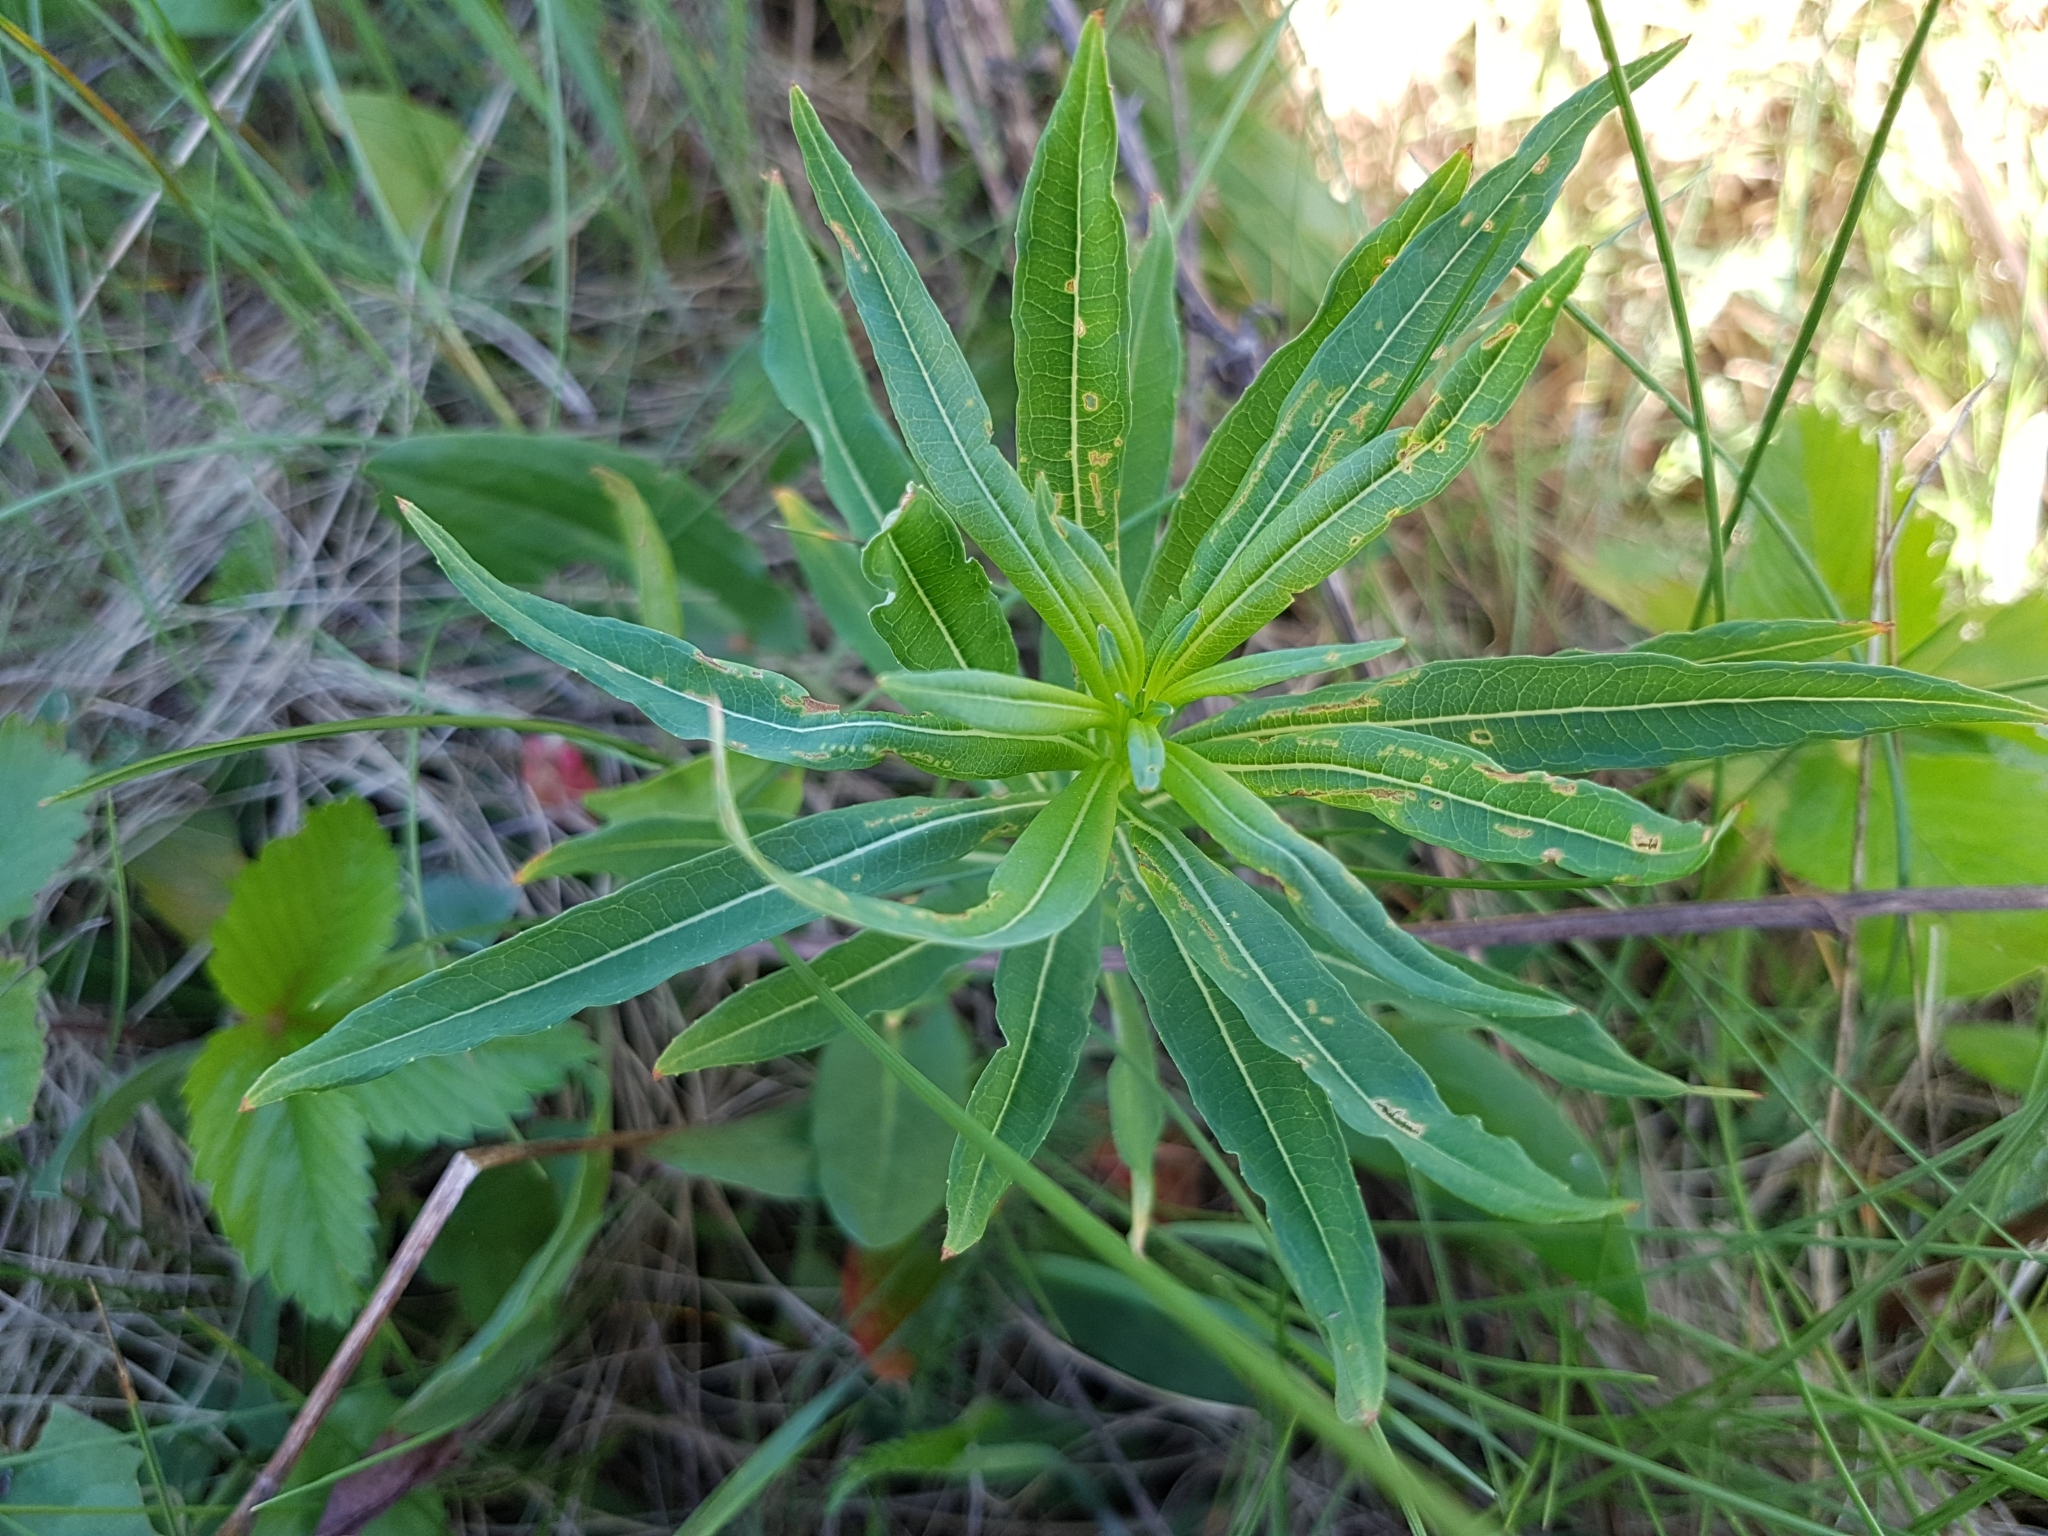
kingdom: Plantae
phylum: Tracheophyta
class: Magnoliopsida
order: Myrtales
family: Onagraceae
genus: Chamaenerion
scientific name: Chamaenerion angustifolium
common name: Fireweed
